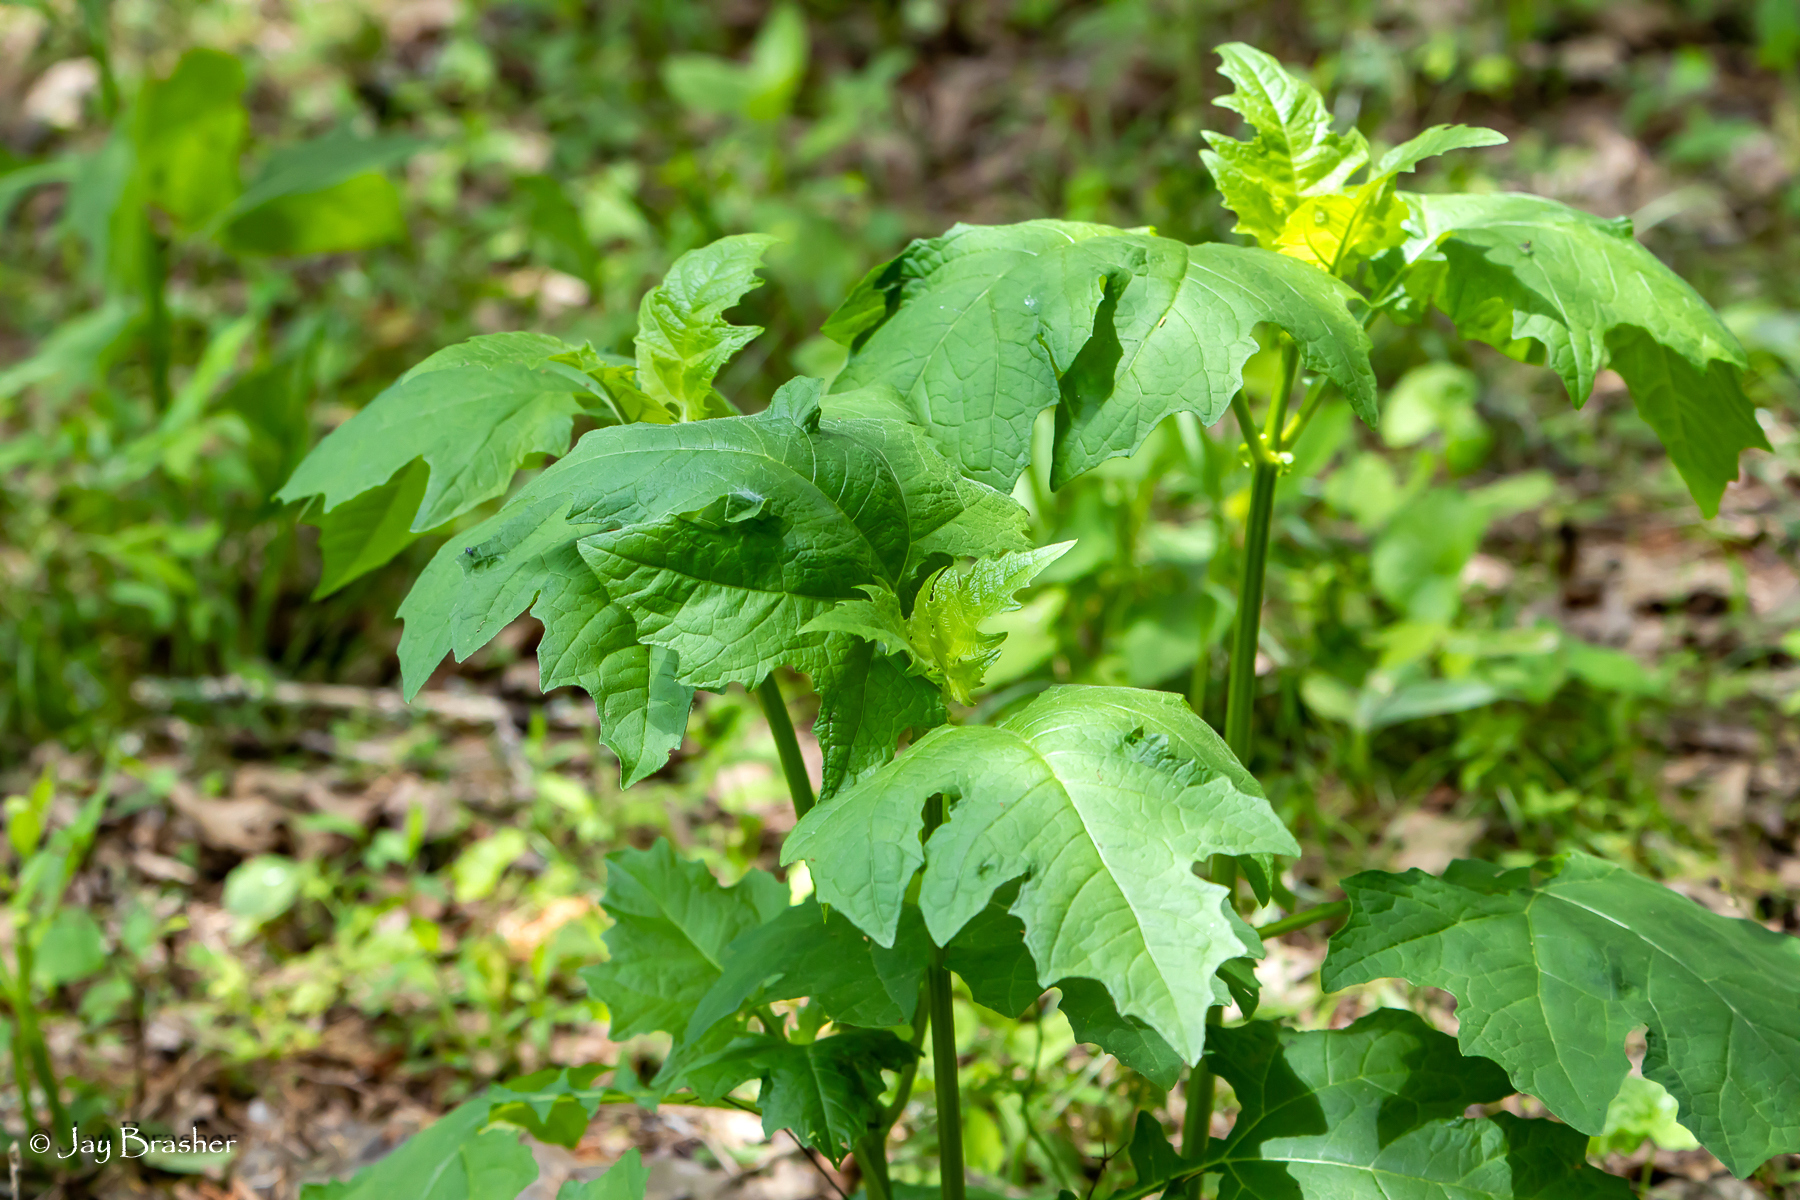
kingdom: Plantae
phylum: Tracheophyta
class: Magnoliopsida
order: Asterales
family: Asteraceae
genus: Smallanthus
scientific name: Smallanthus uvedalia
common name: Bear's-foot
